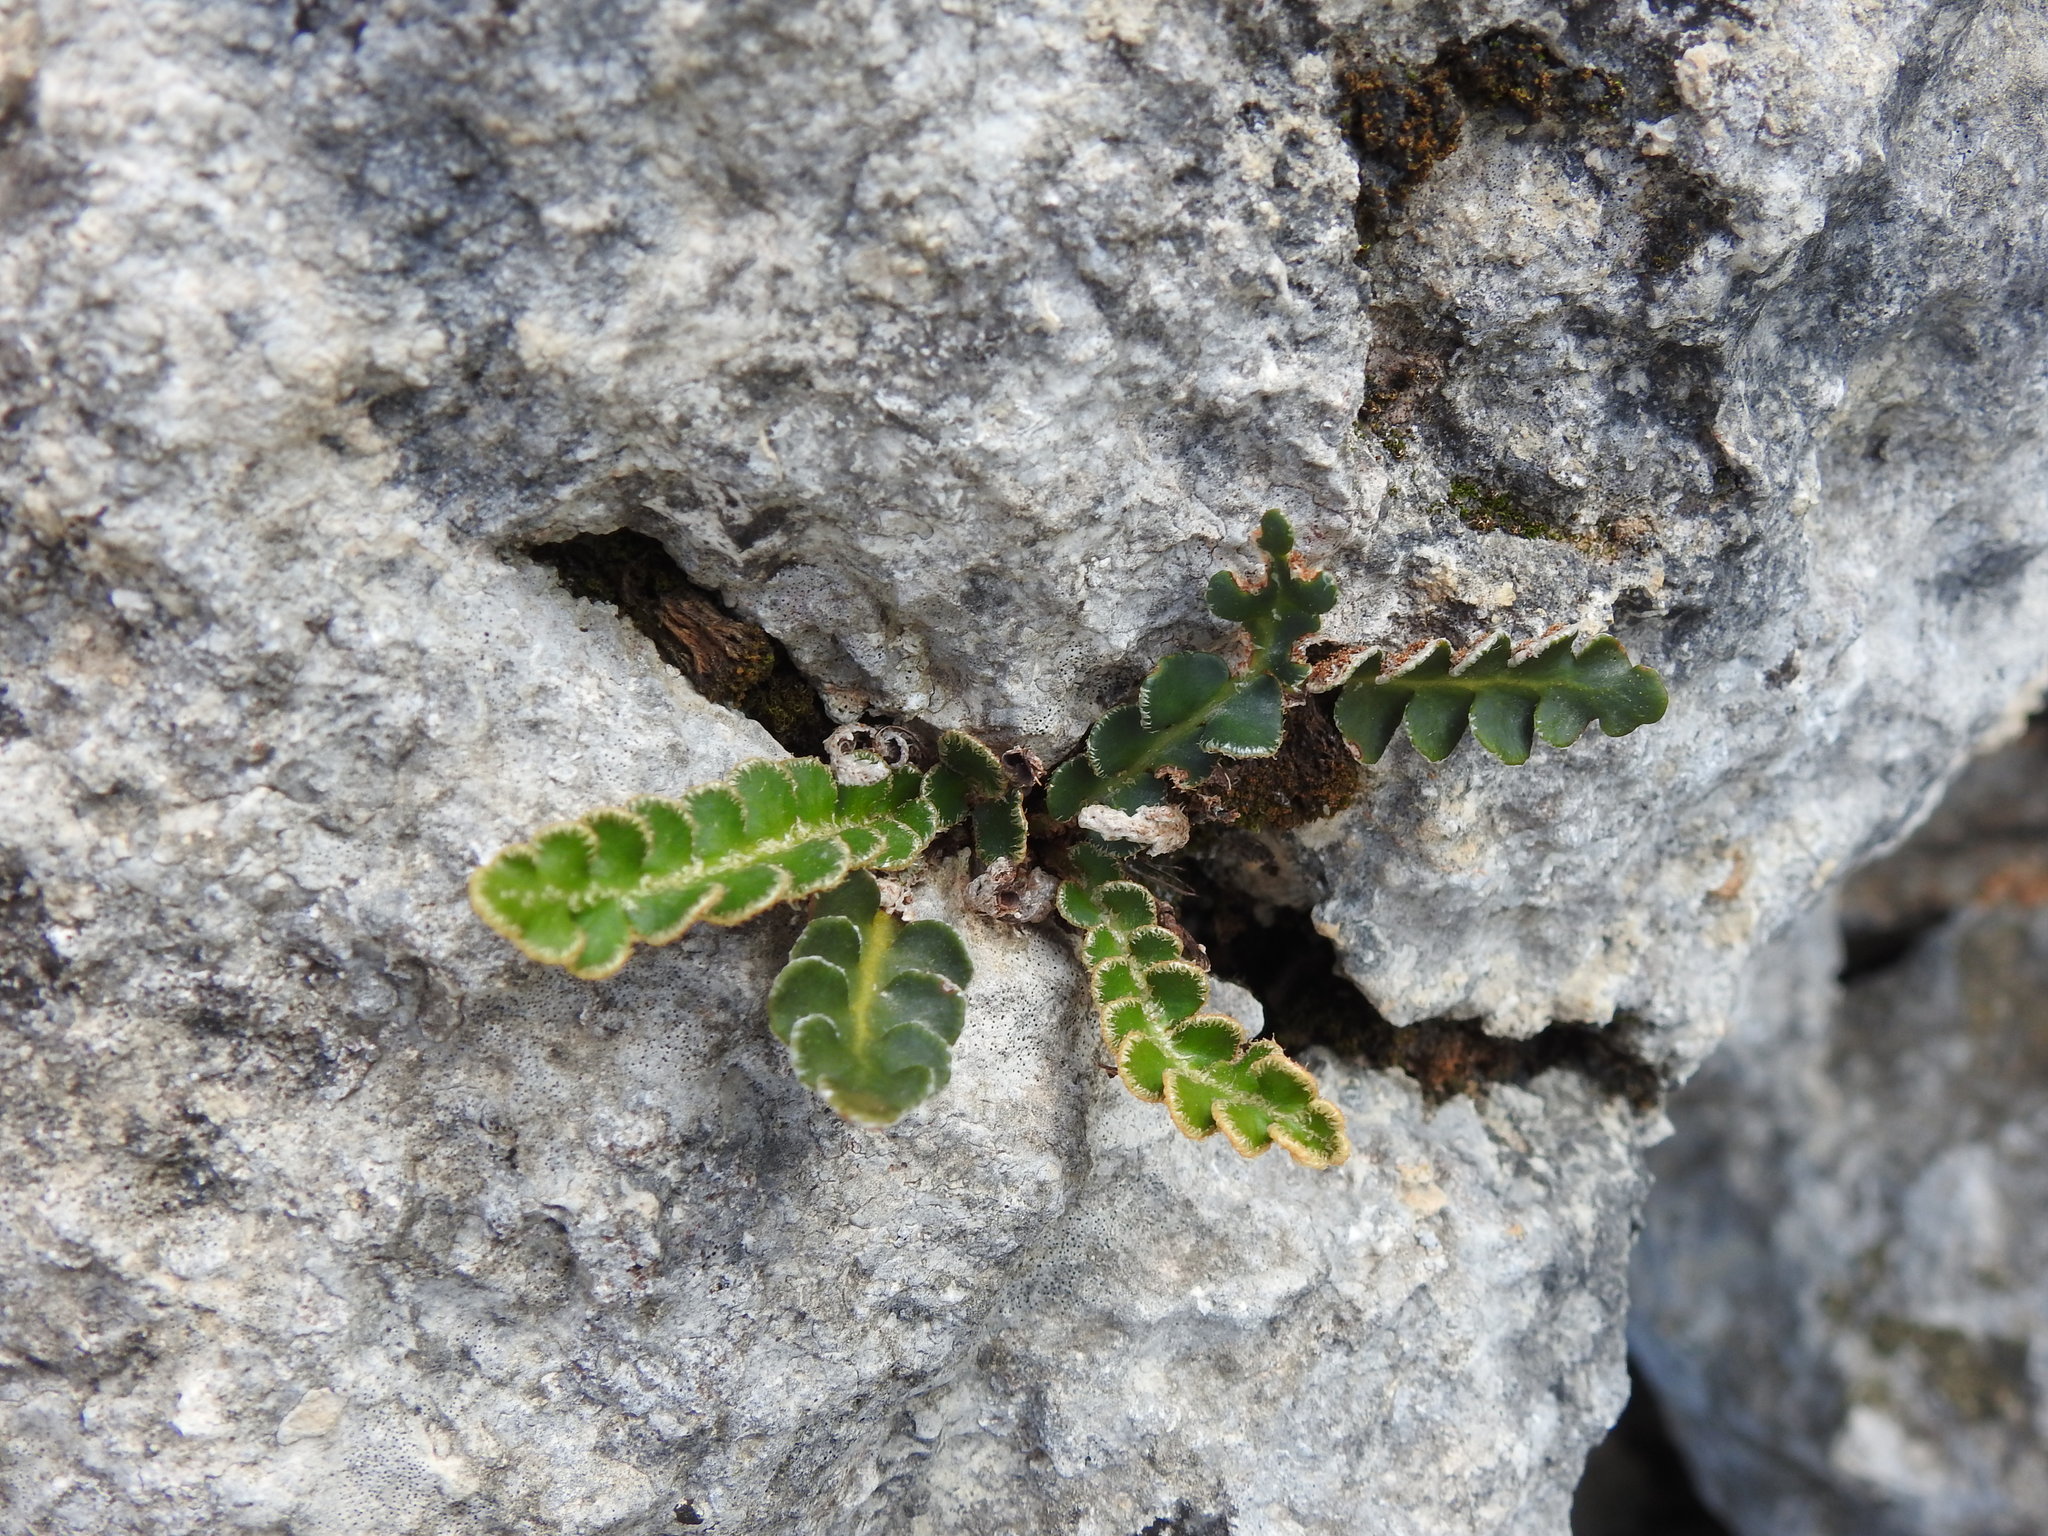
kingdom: Plantae
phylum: Tracheophyta
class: Polypodiopsida
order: Polypodiales
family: Aspleniaceae
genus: Asplenium
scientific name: Asplenium ceterach
